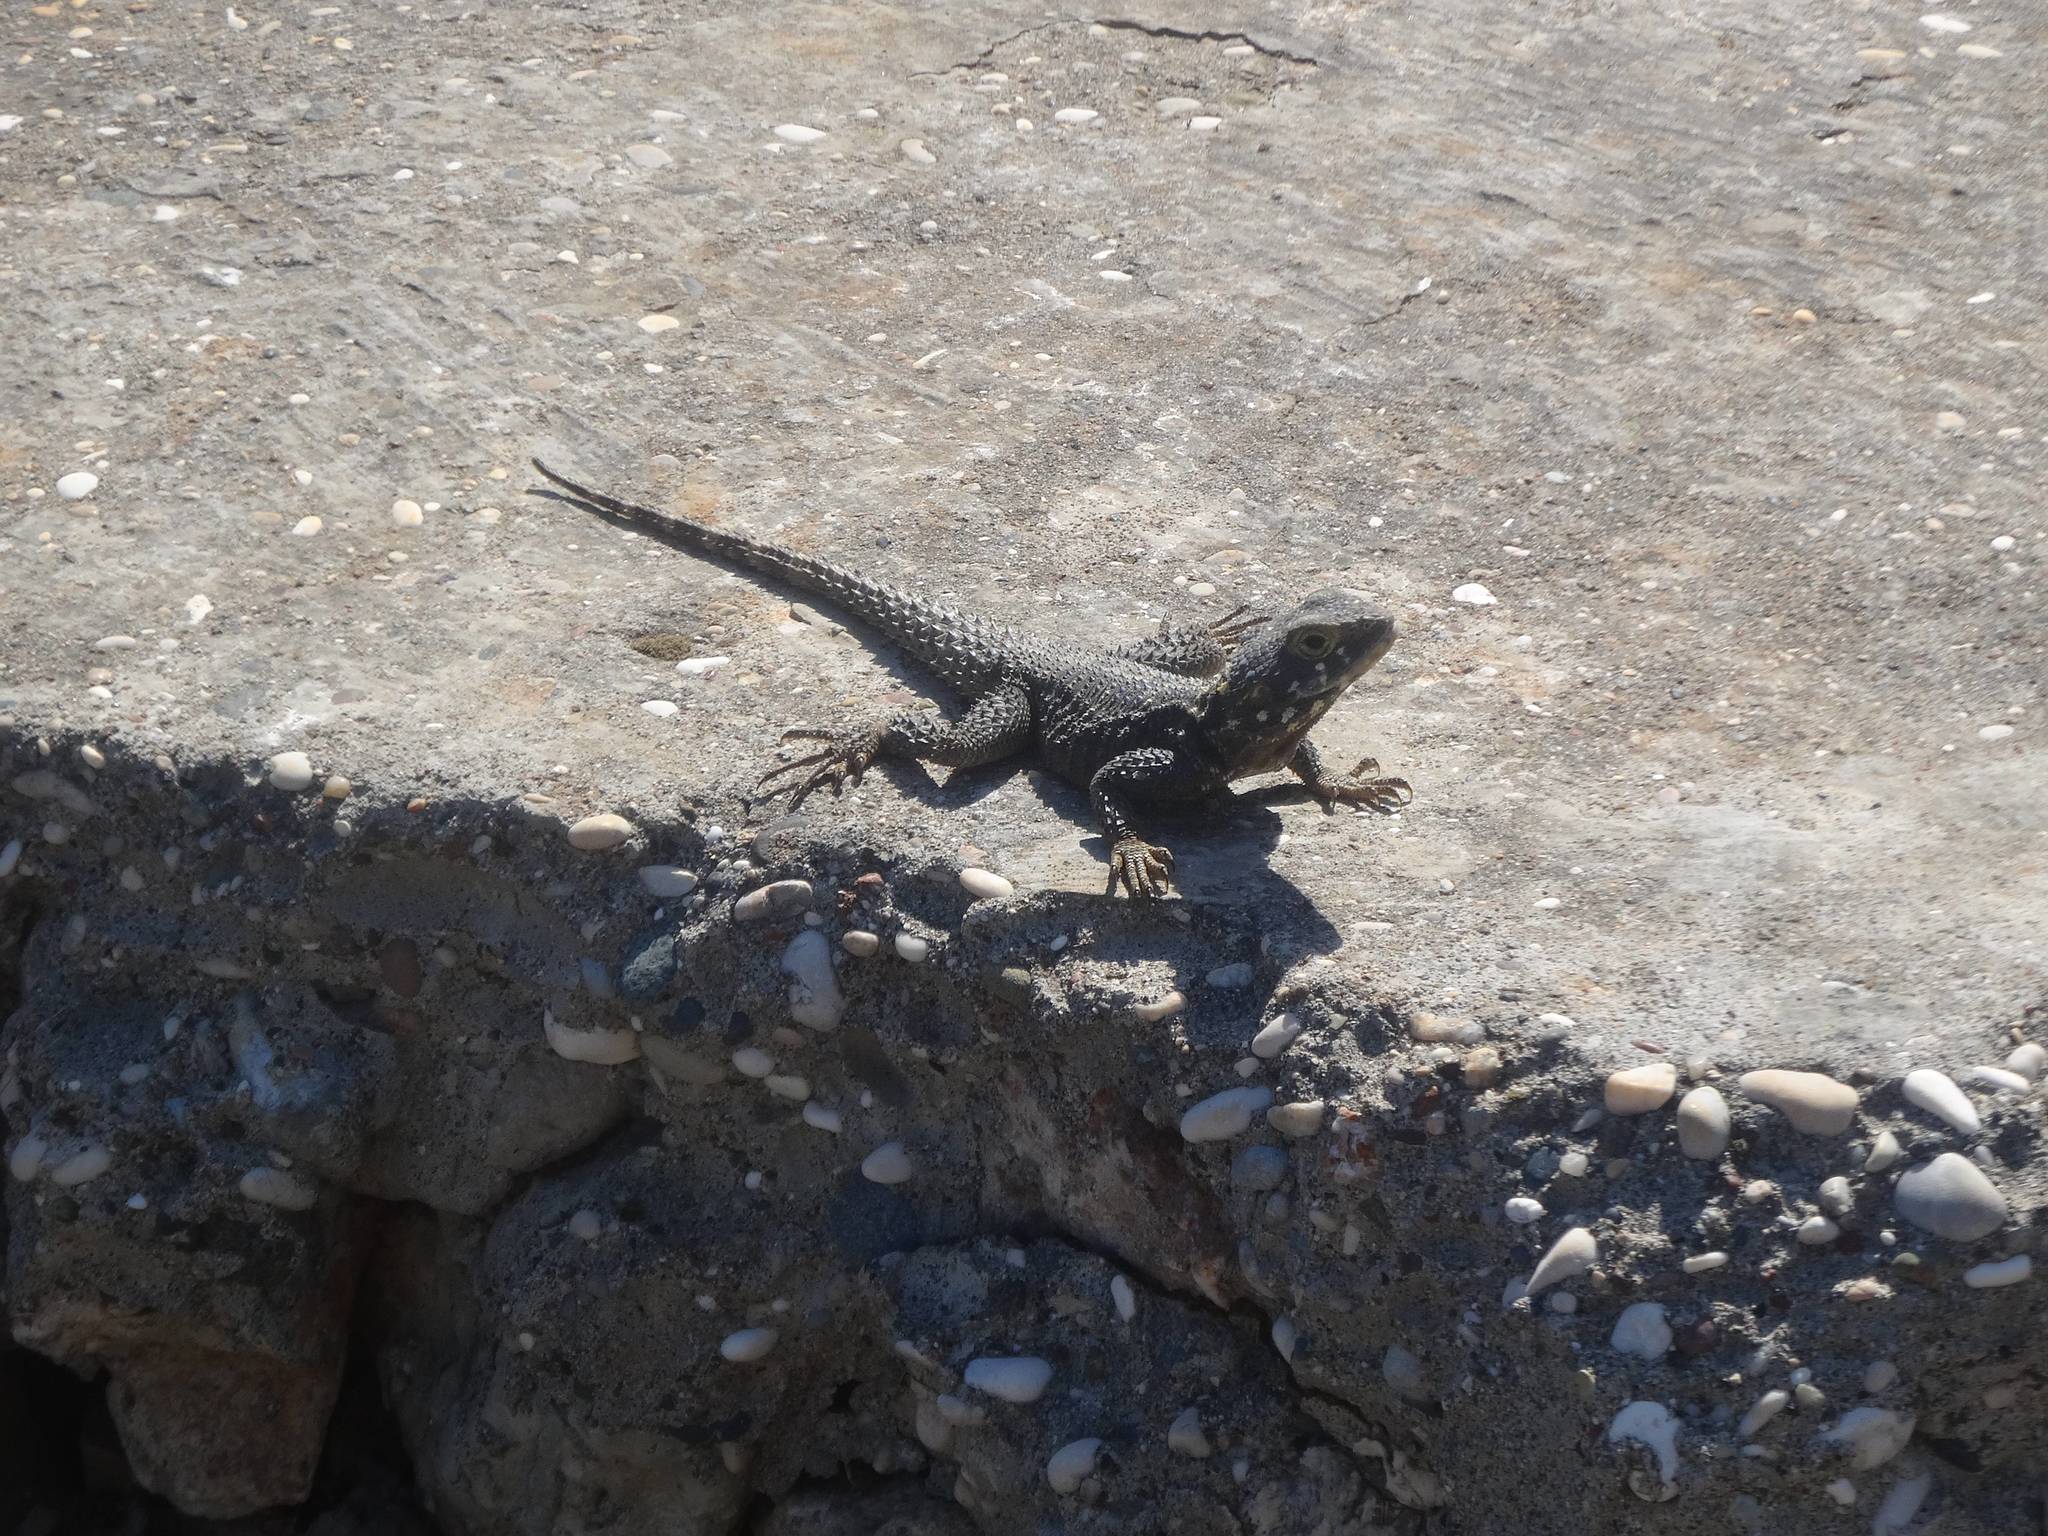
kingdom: Animalia
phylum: Chordata
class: Squamata
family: Agamidae
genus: Stellagama
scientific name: Stellagama stellio
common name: Starred agama
